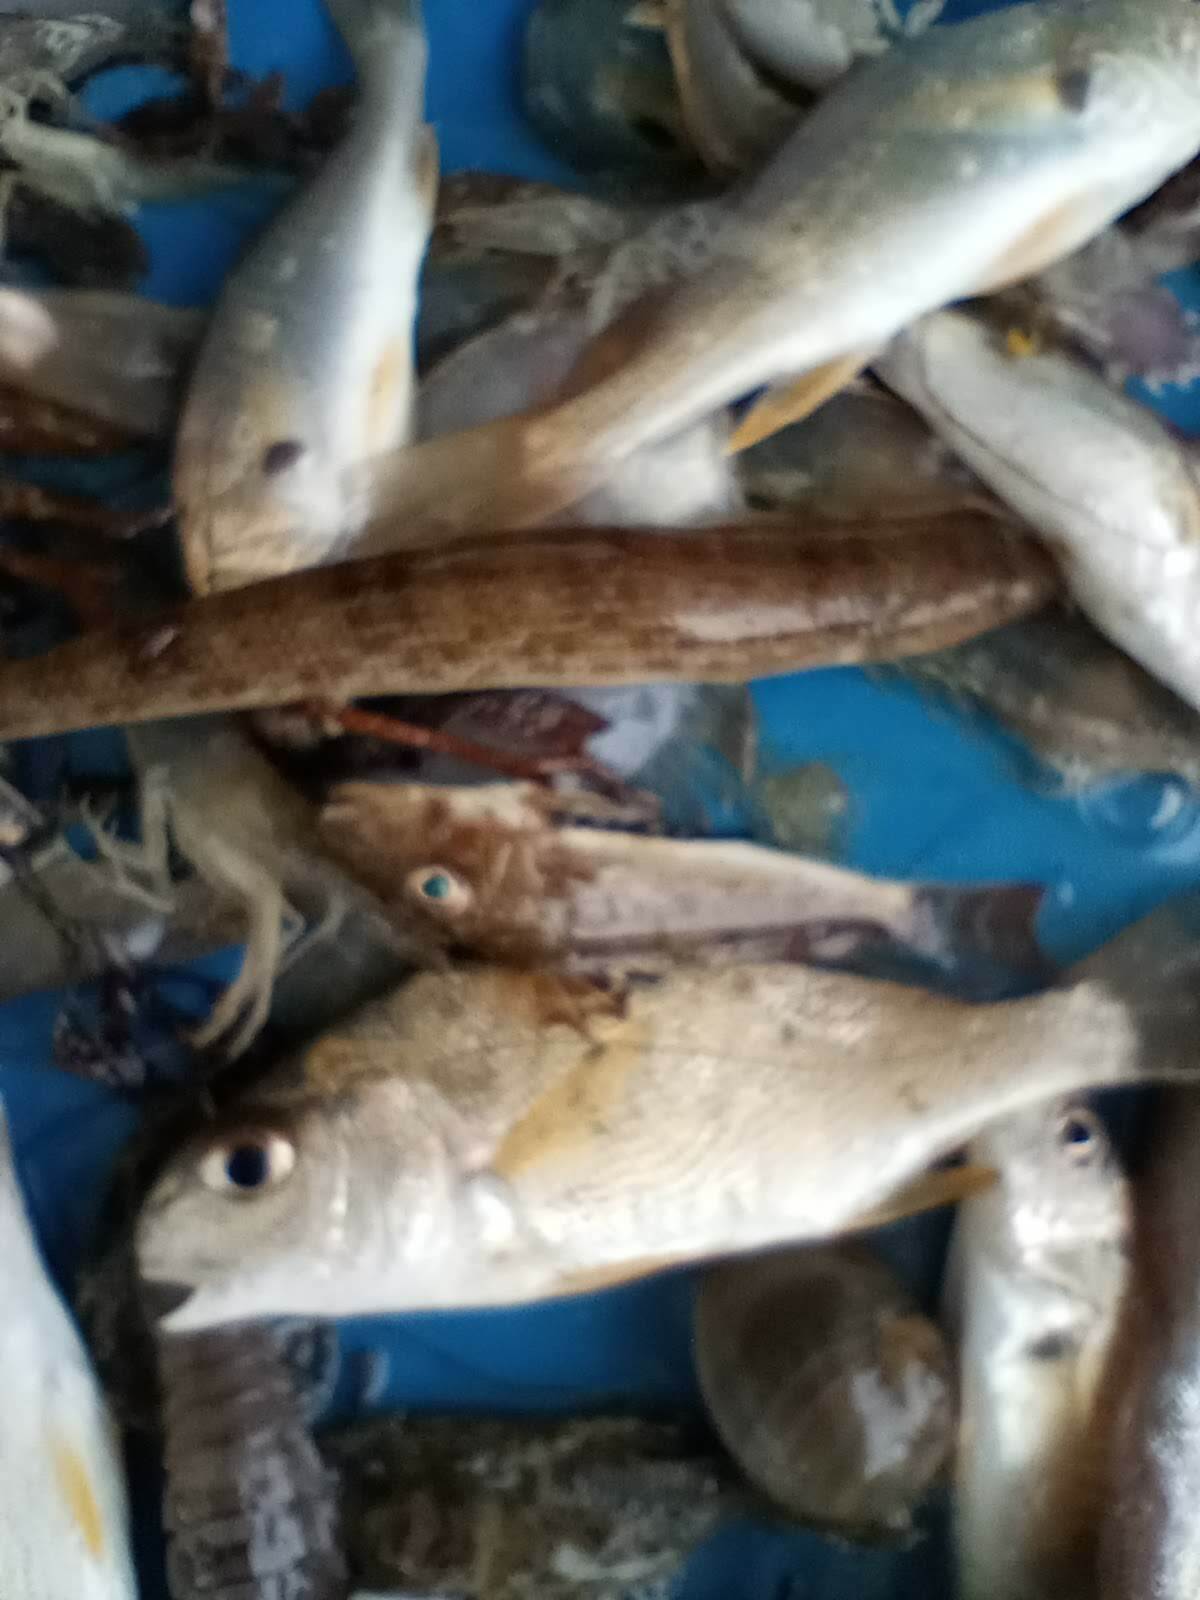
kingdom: Animalia
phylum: Chordata
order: Aulopiformes
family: Synodontidae
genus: Synodus
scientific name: Synodus foetens
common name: Inshore lizardfish
